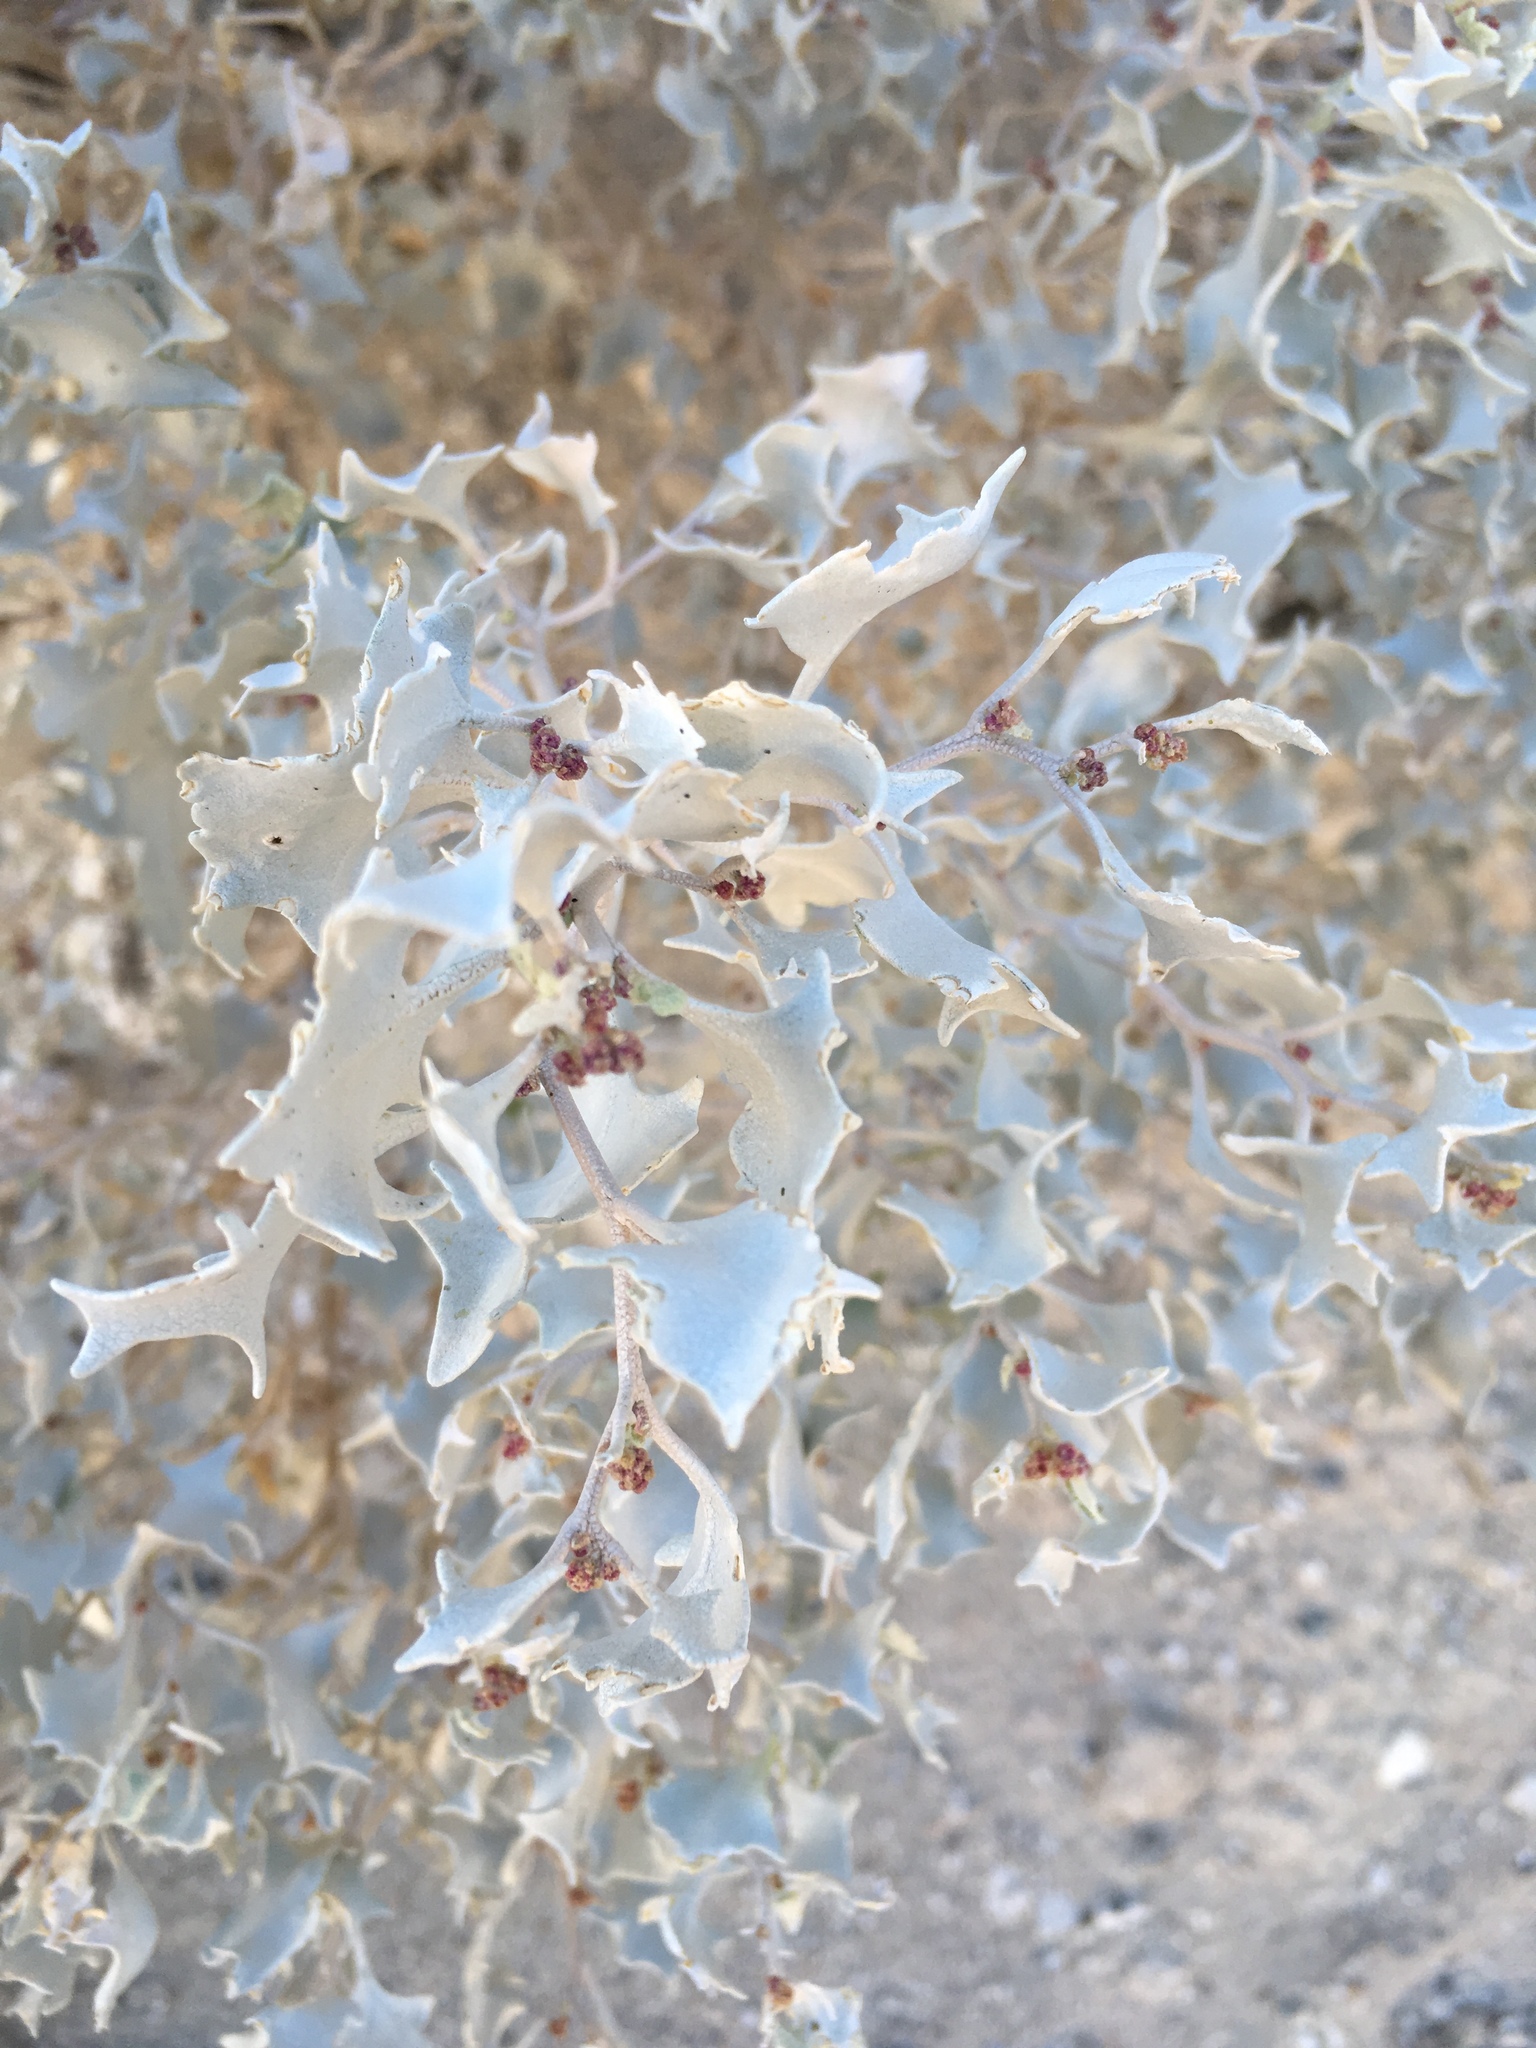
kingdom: Plantae
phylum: Tracheophyta
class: Magnoliopsida
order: Caryophyllales
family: Amaranthaceae
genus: Atriplex
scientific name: Atriplex hymenelytra
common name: Desert-holly
